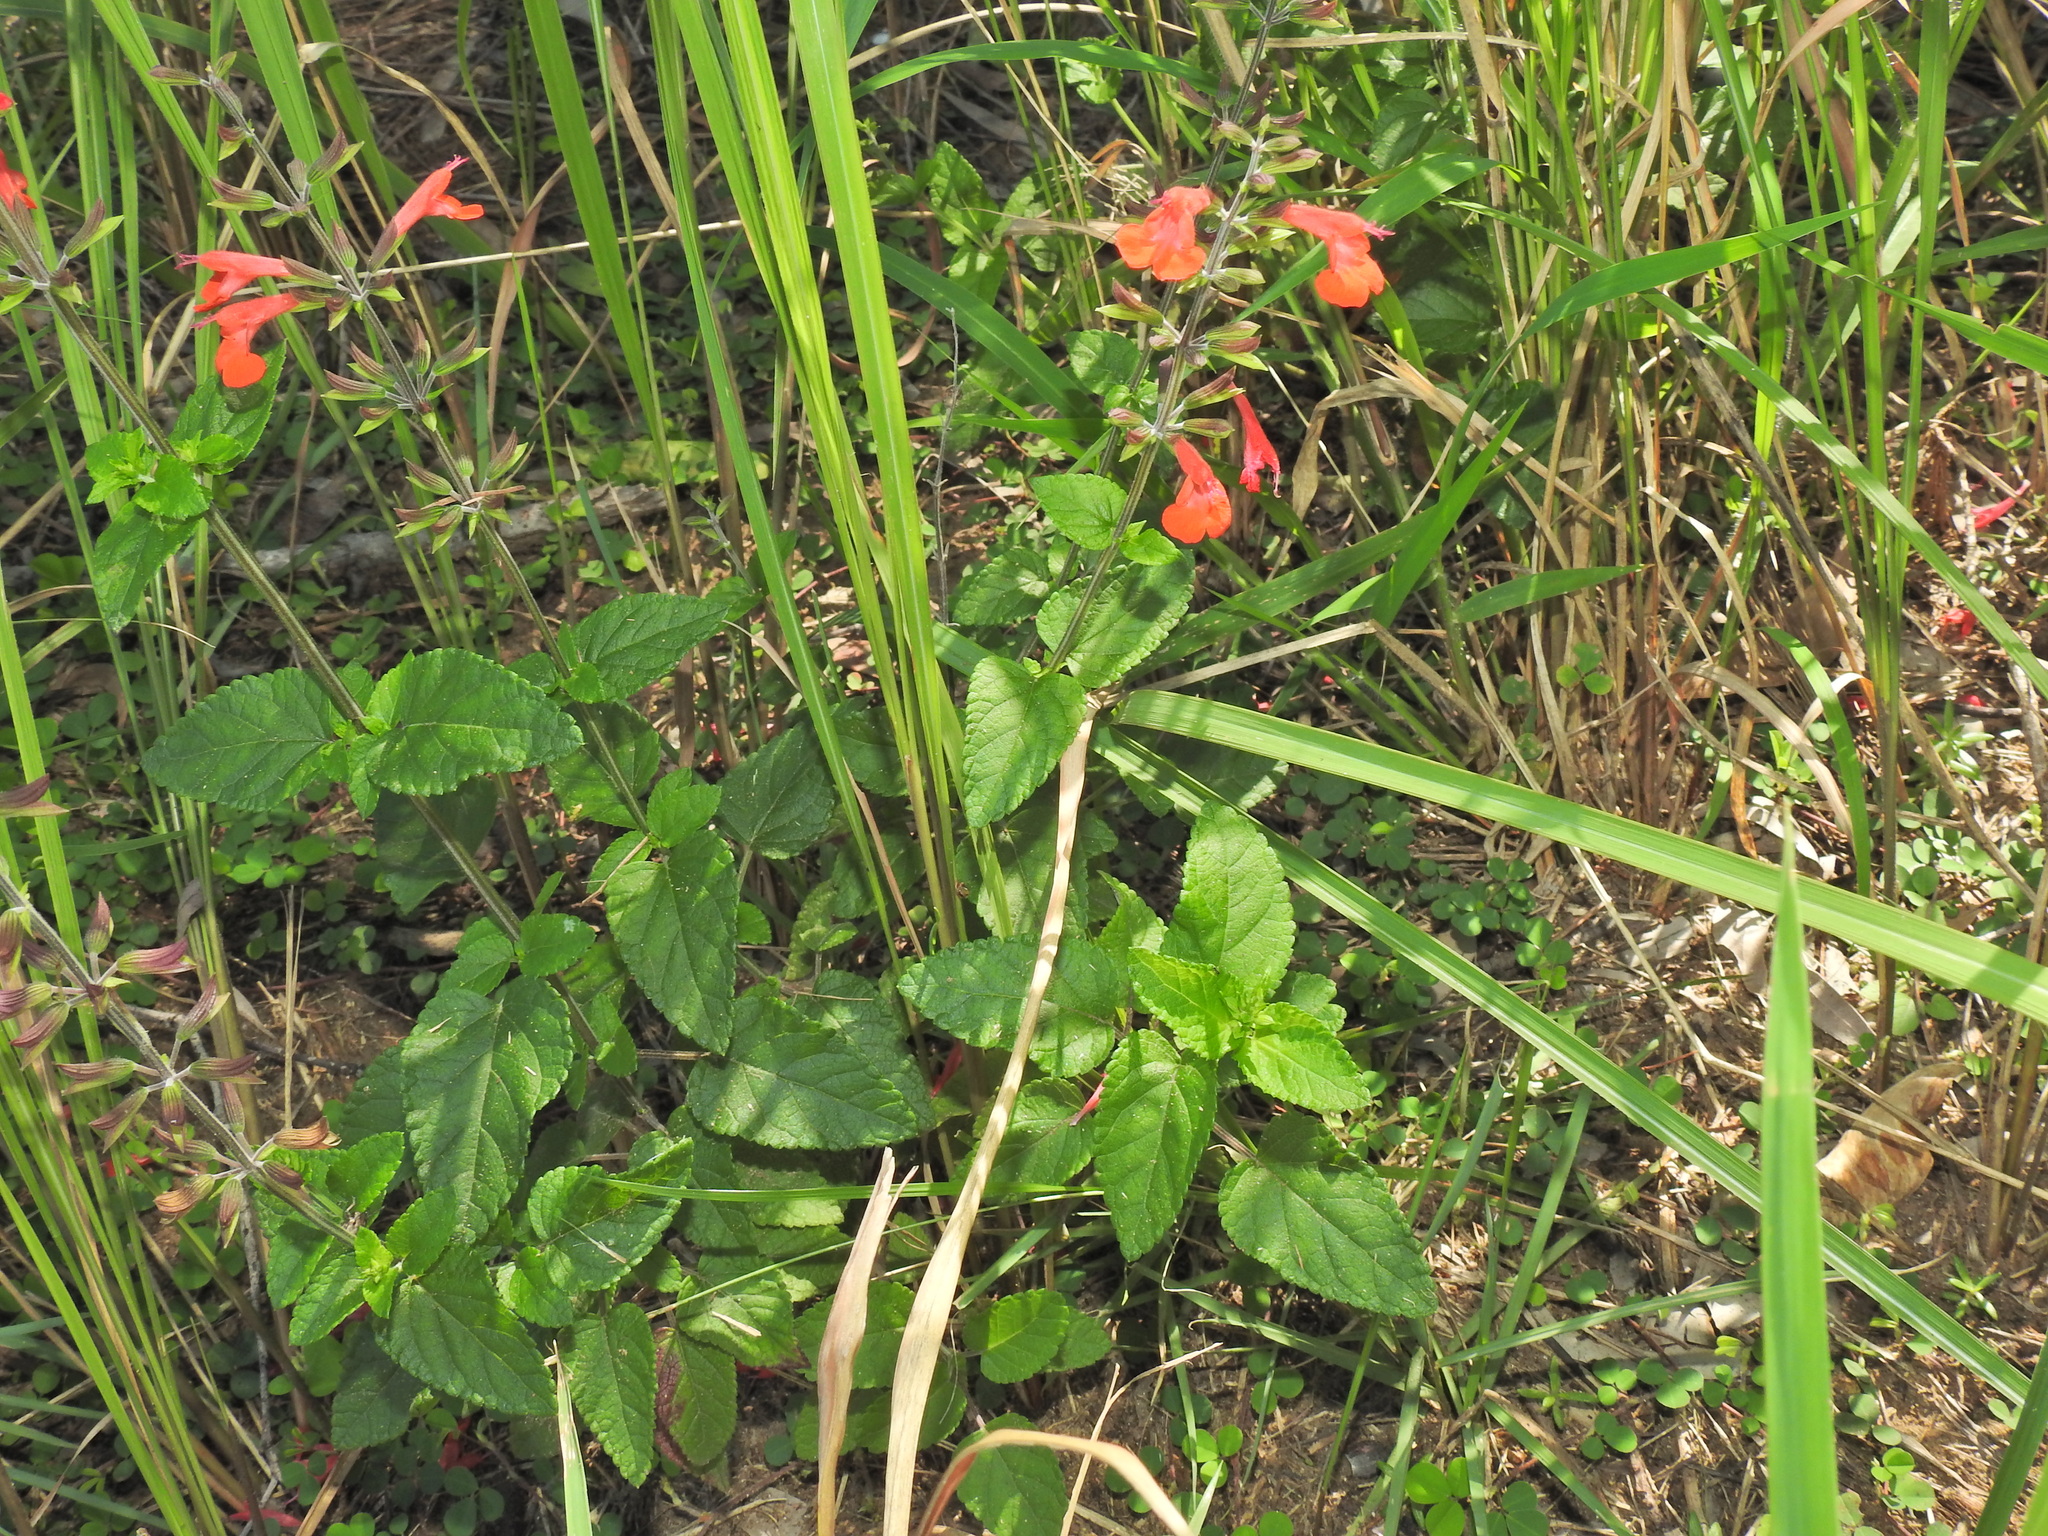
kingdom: Plantae
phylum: Tracheophyta
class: Magnoliopsida
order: Lamiales
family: Lamiaceae
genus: Salvia
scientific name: Salvia coccinea
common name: Blood sage
